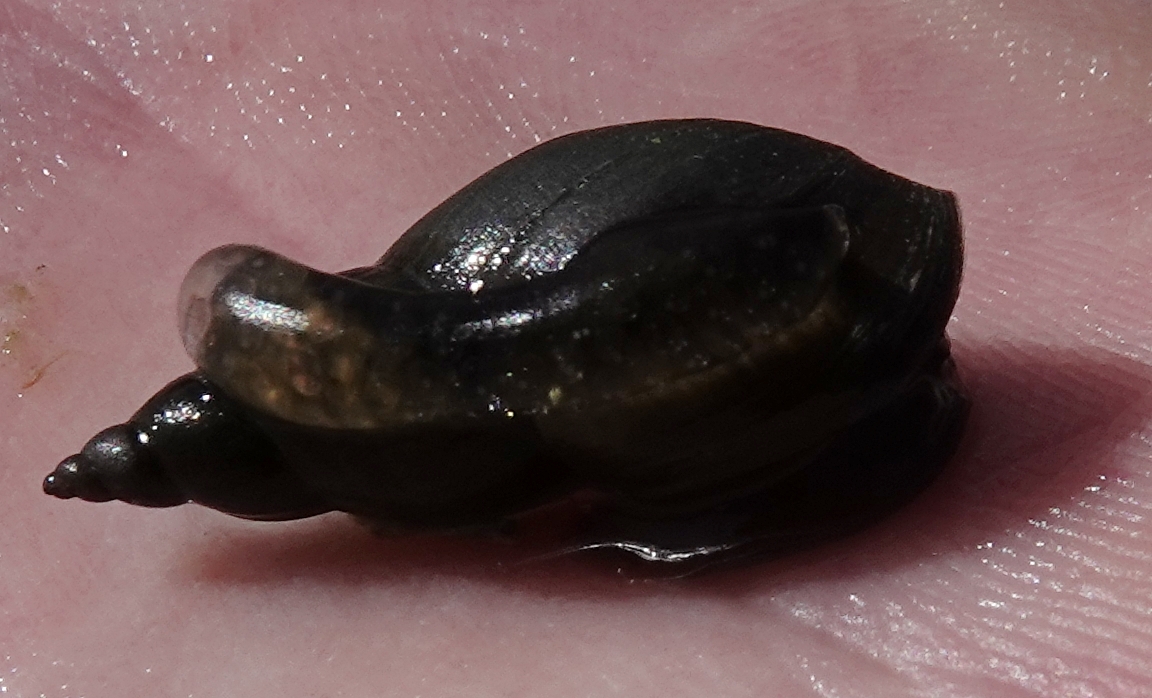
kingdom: Animalia
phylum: Mollusca
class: Gastropoda
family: Lymnaeidae
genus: Lymnaea
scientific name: Lymnaea stagnalis
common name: Great pond snail
